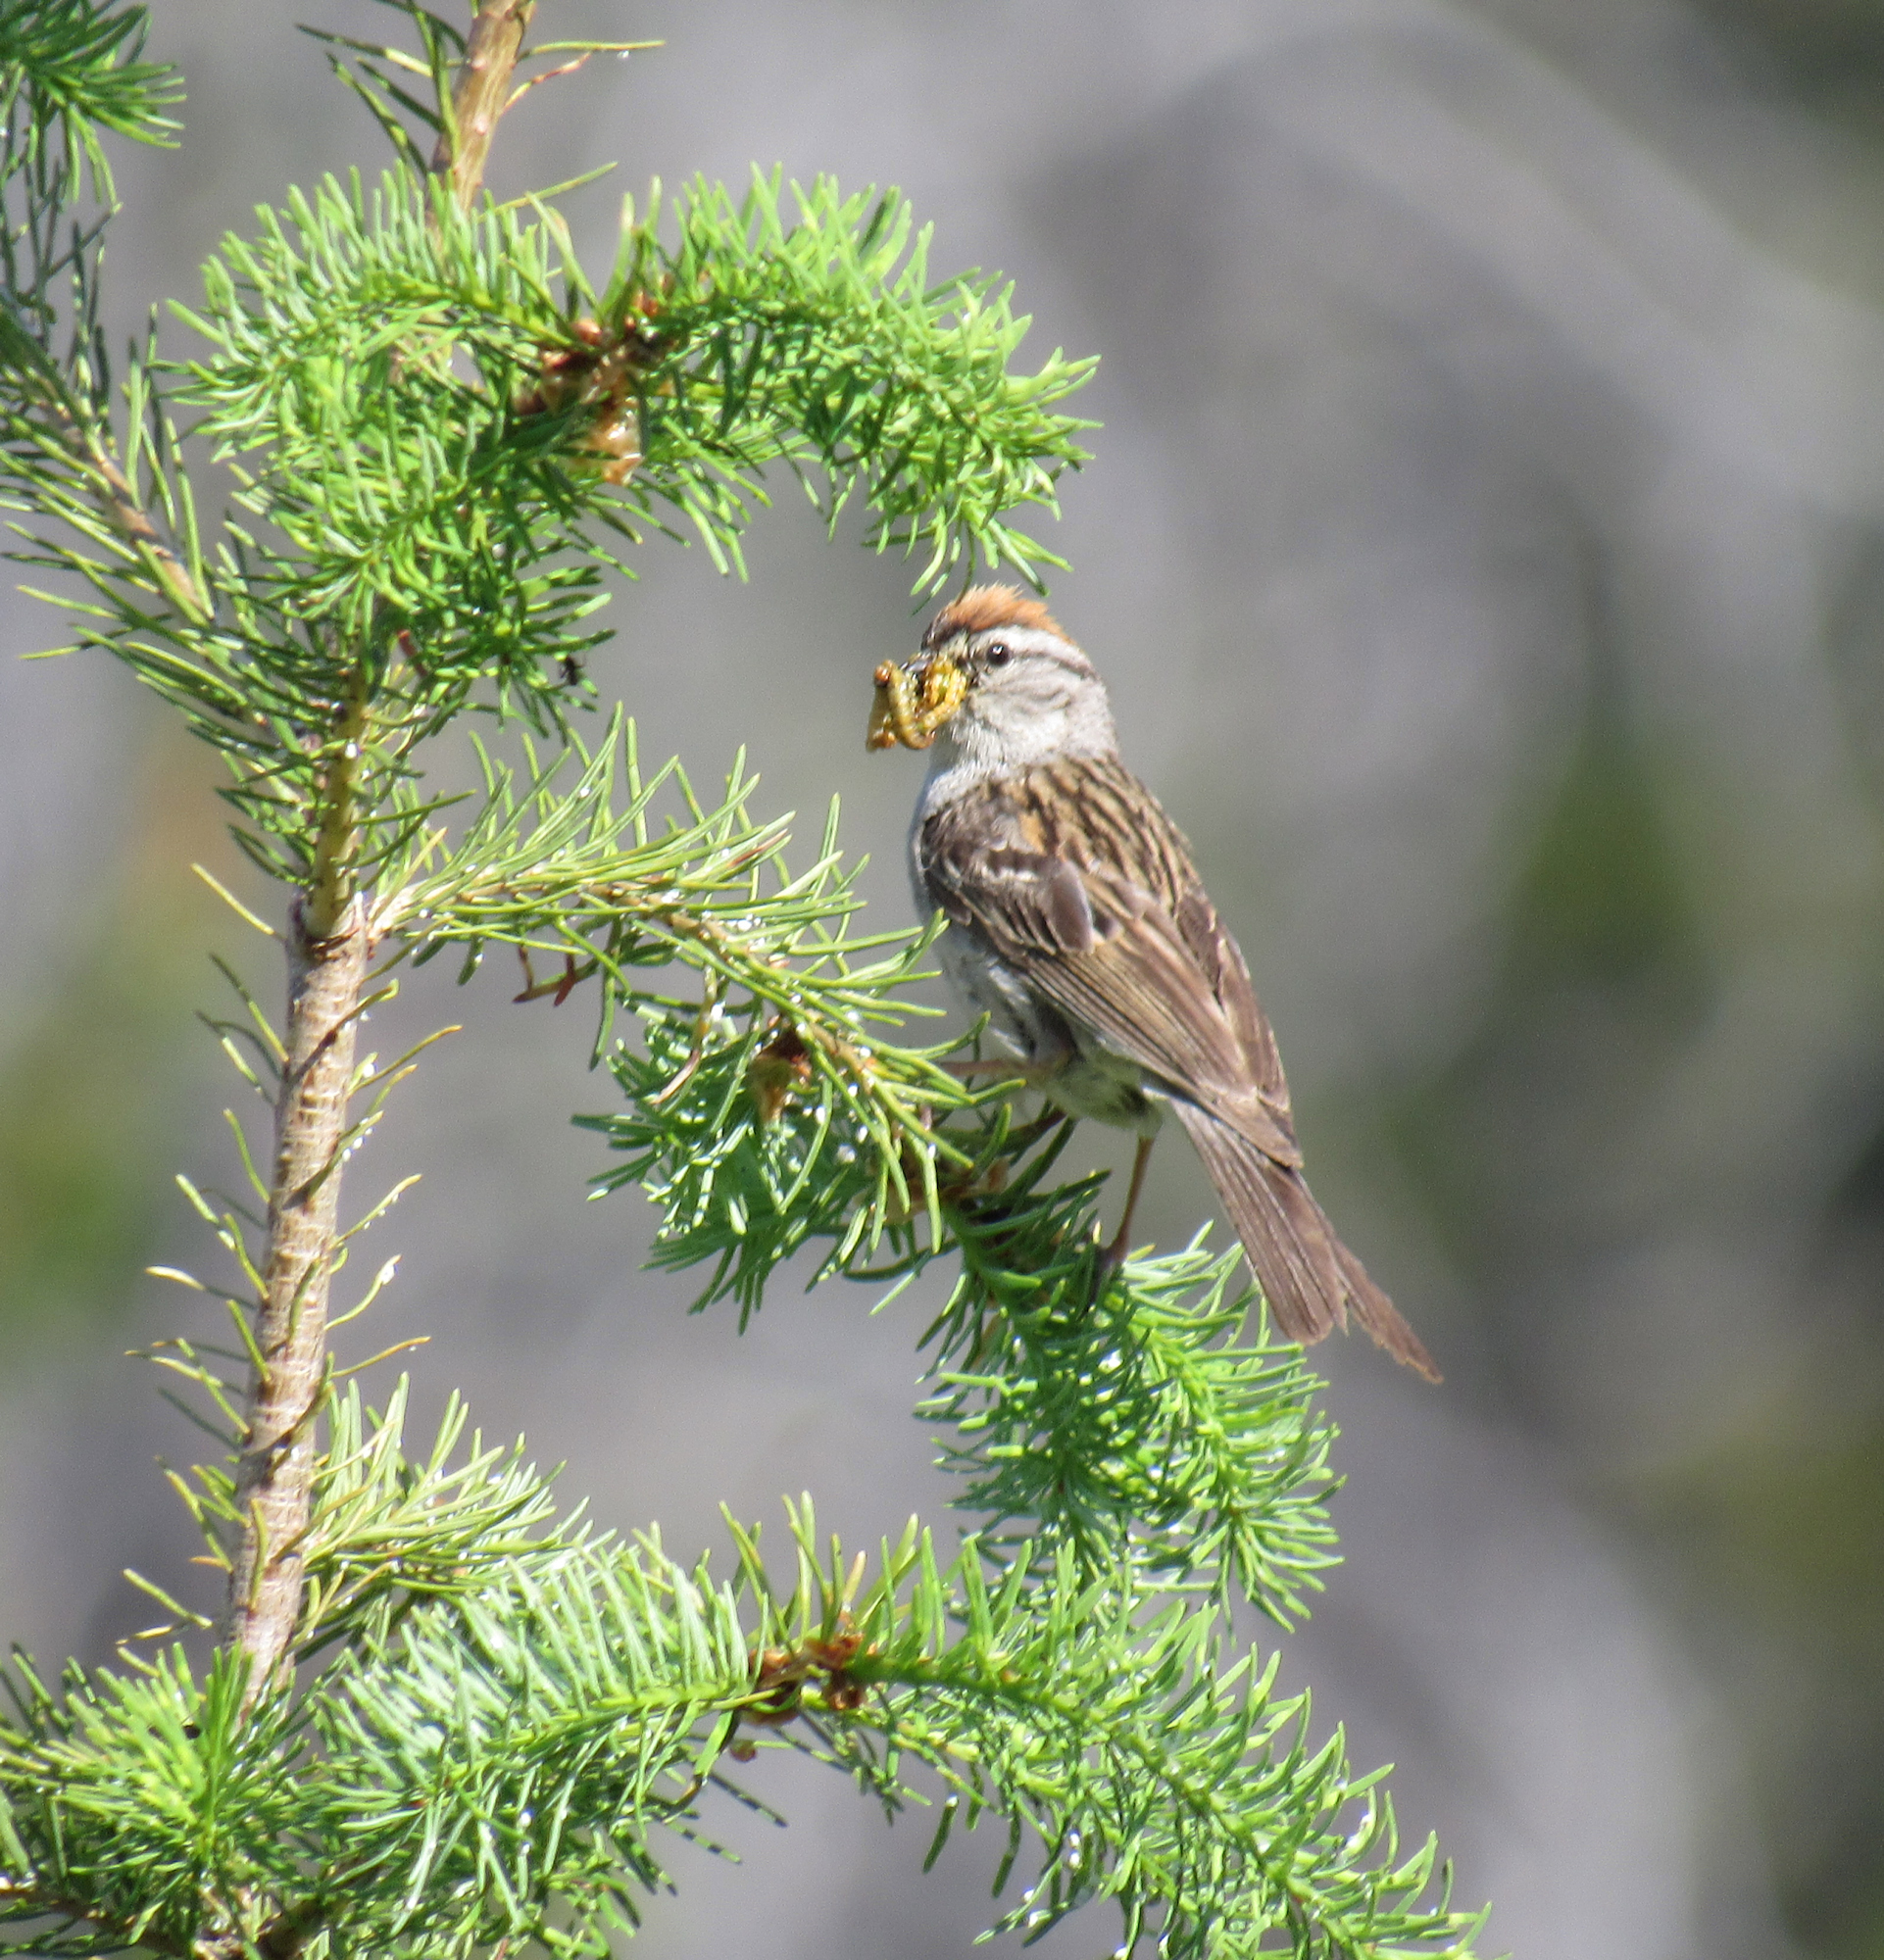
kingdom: Animalia
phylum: Chordata
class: Aves
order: Passeriformes
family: Passerellidae
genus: Spizella
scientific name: Spizella passerina
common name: Chipping sparrow
